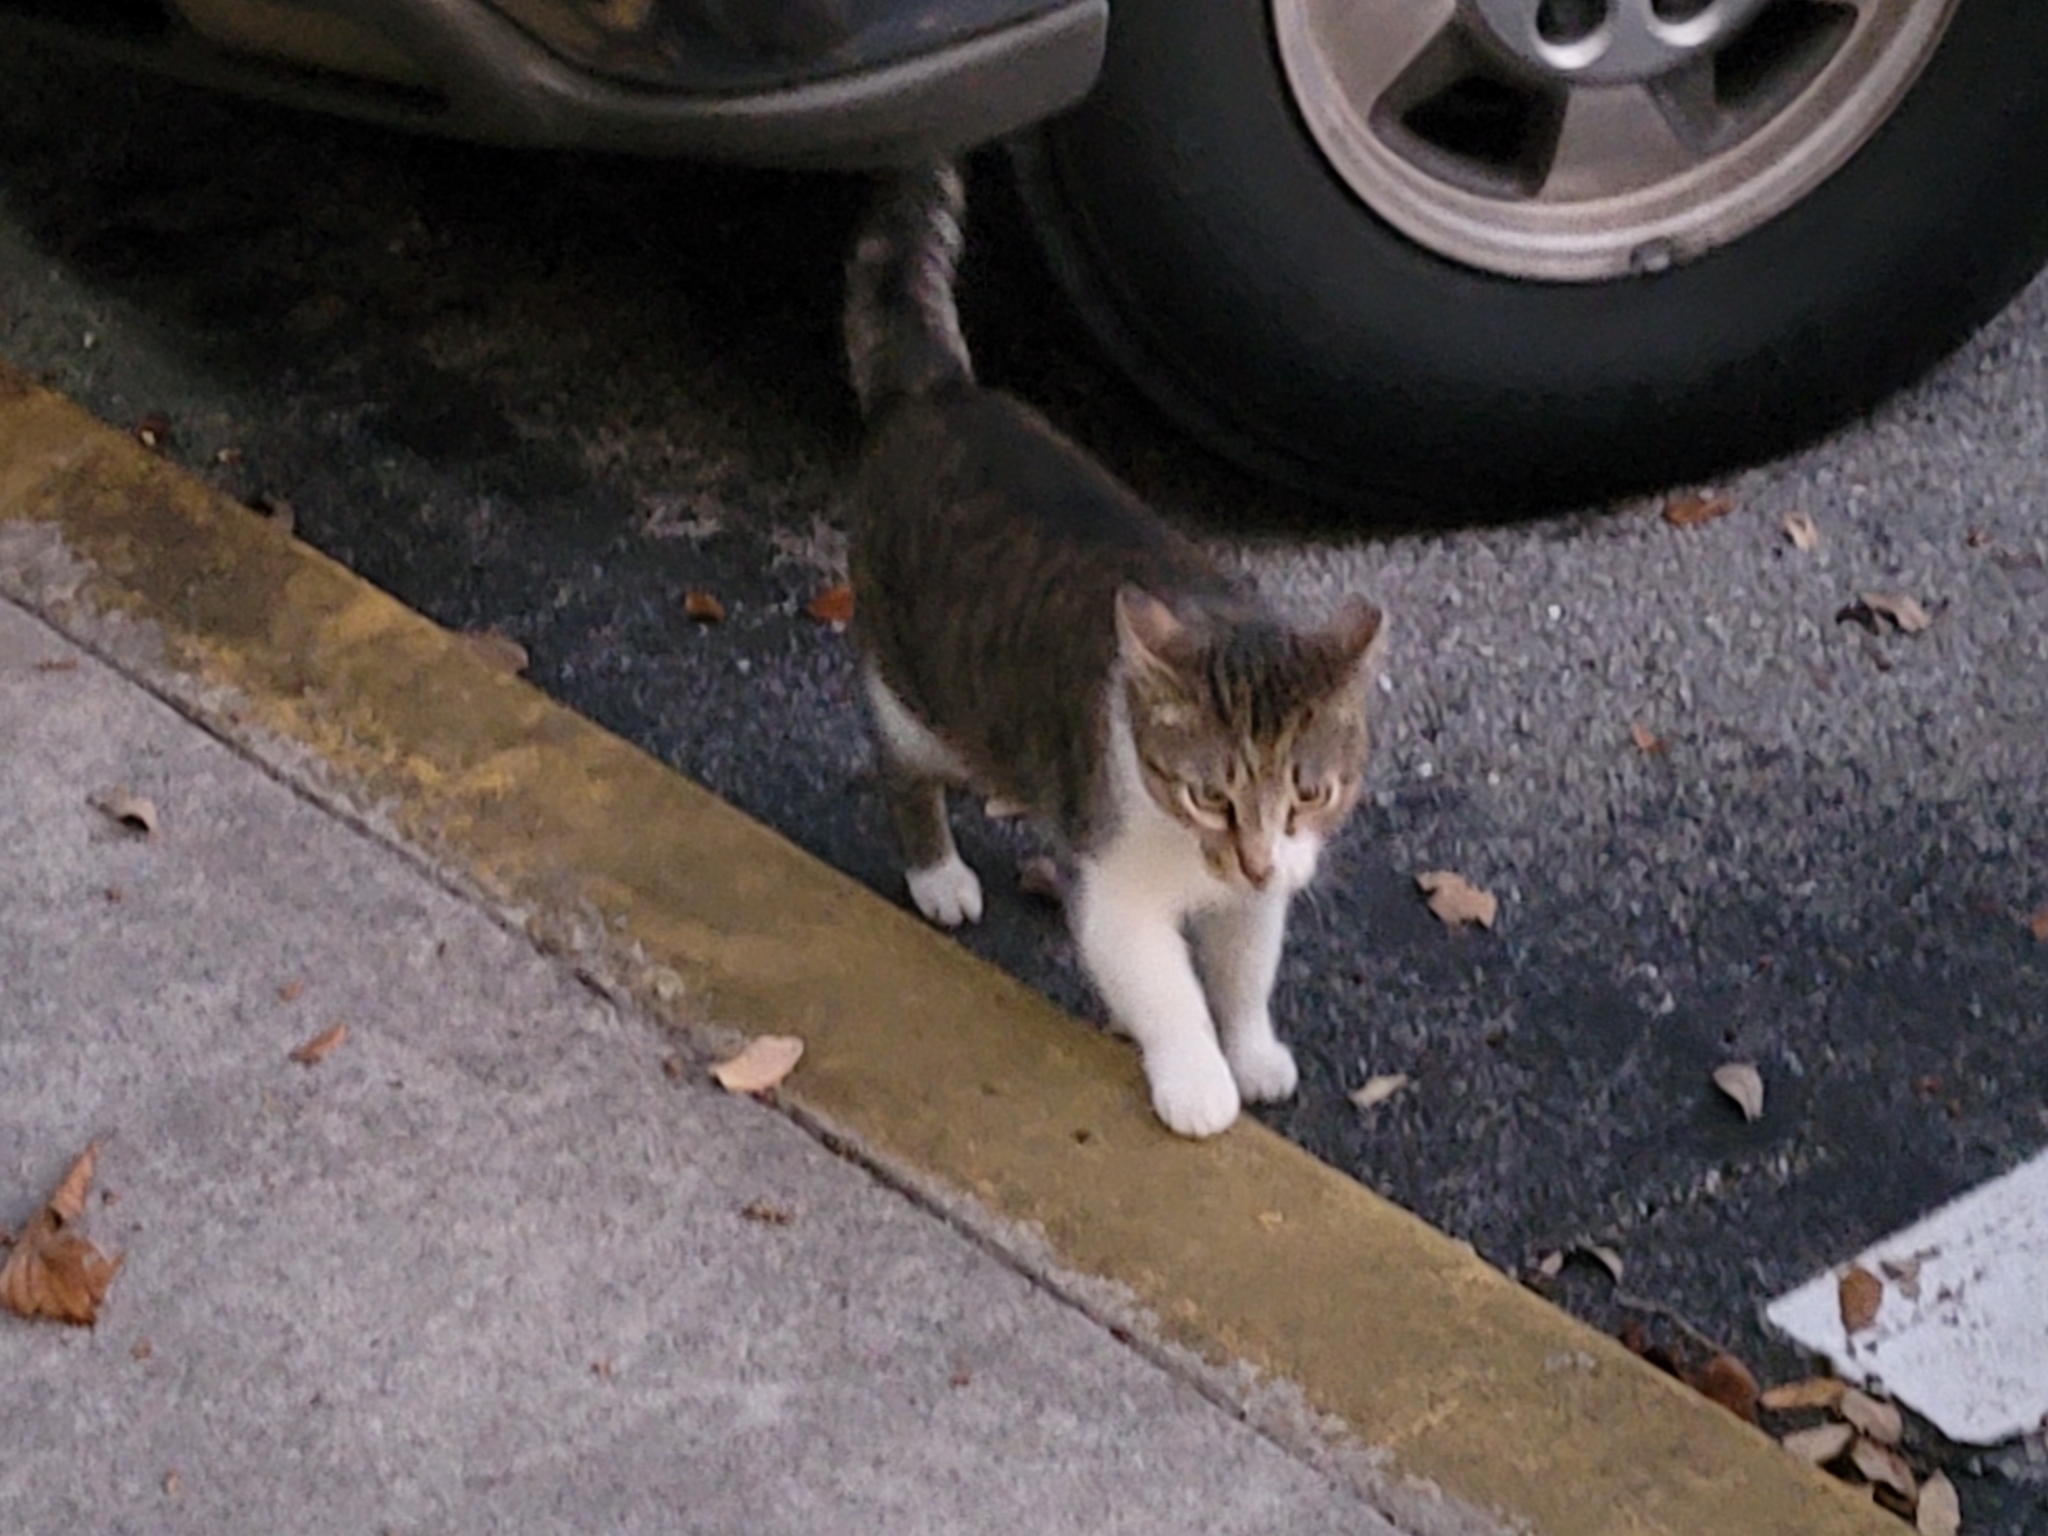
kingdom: Animalia
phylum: Chordata
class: Mammalia
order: Carnivora
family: Felidae
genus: Felis
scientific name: Felis catus
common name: Domestic cat
